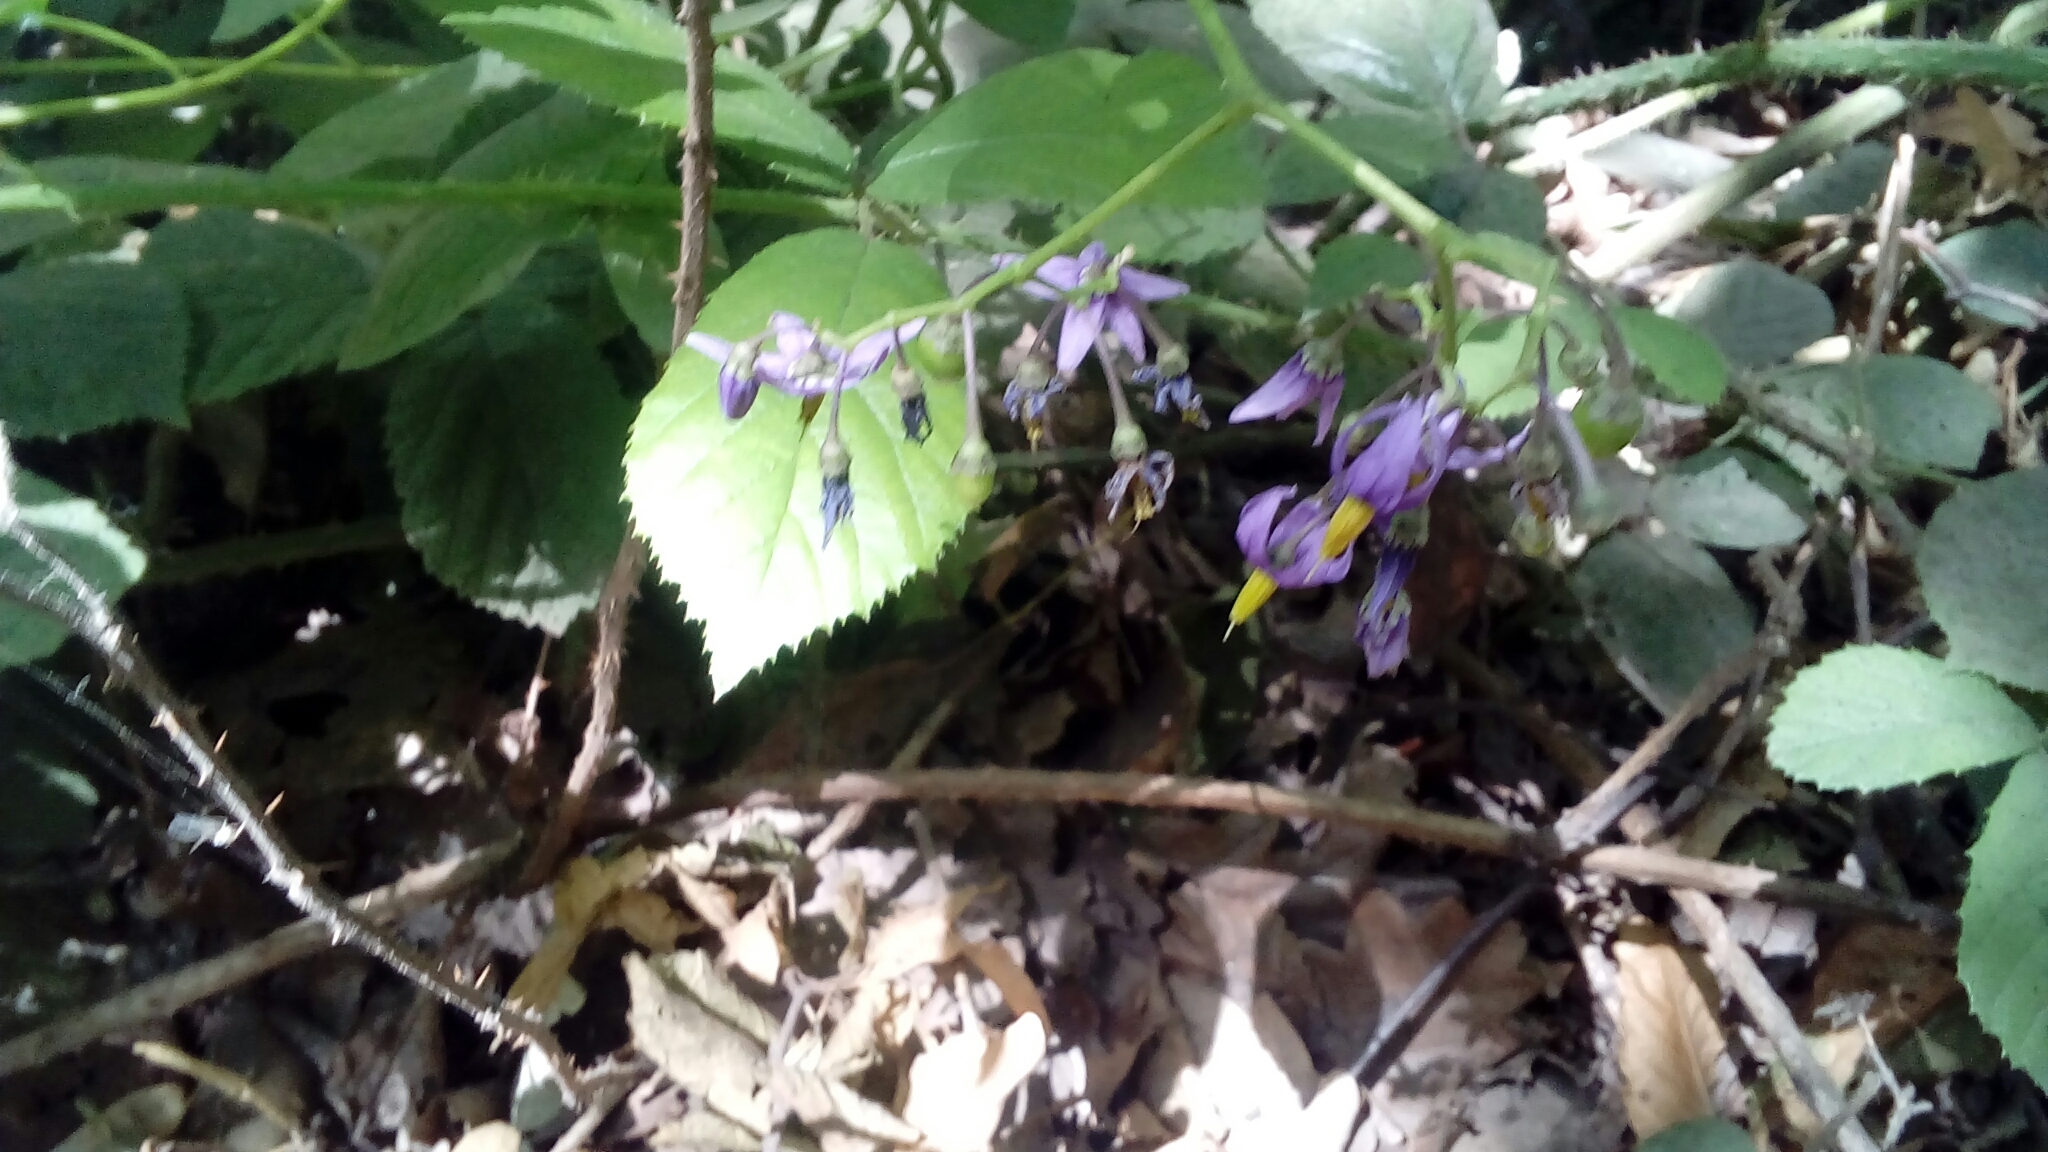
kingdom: Plantae
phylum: Tracheophyta
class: Magnoliopsida
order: Solanales
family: Solanaceae
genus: Solanum
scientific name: Solanum dulcamara
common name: Climbing nightshade
